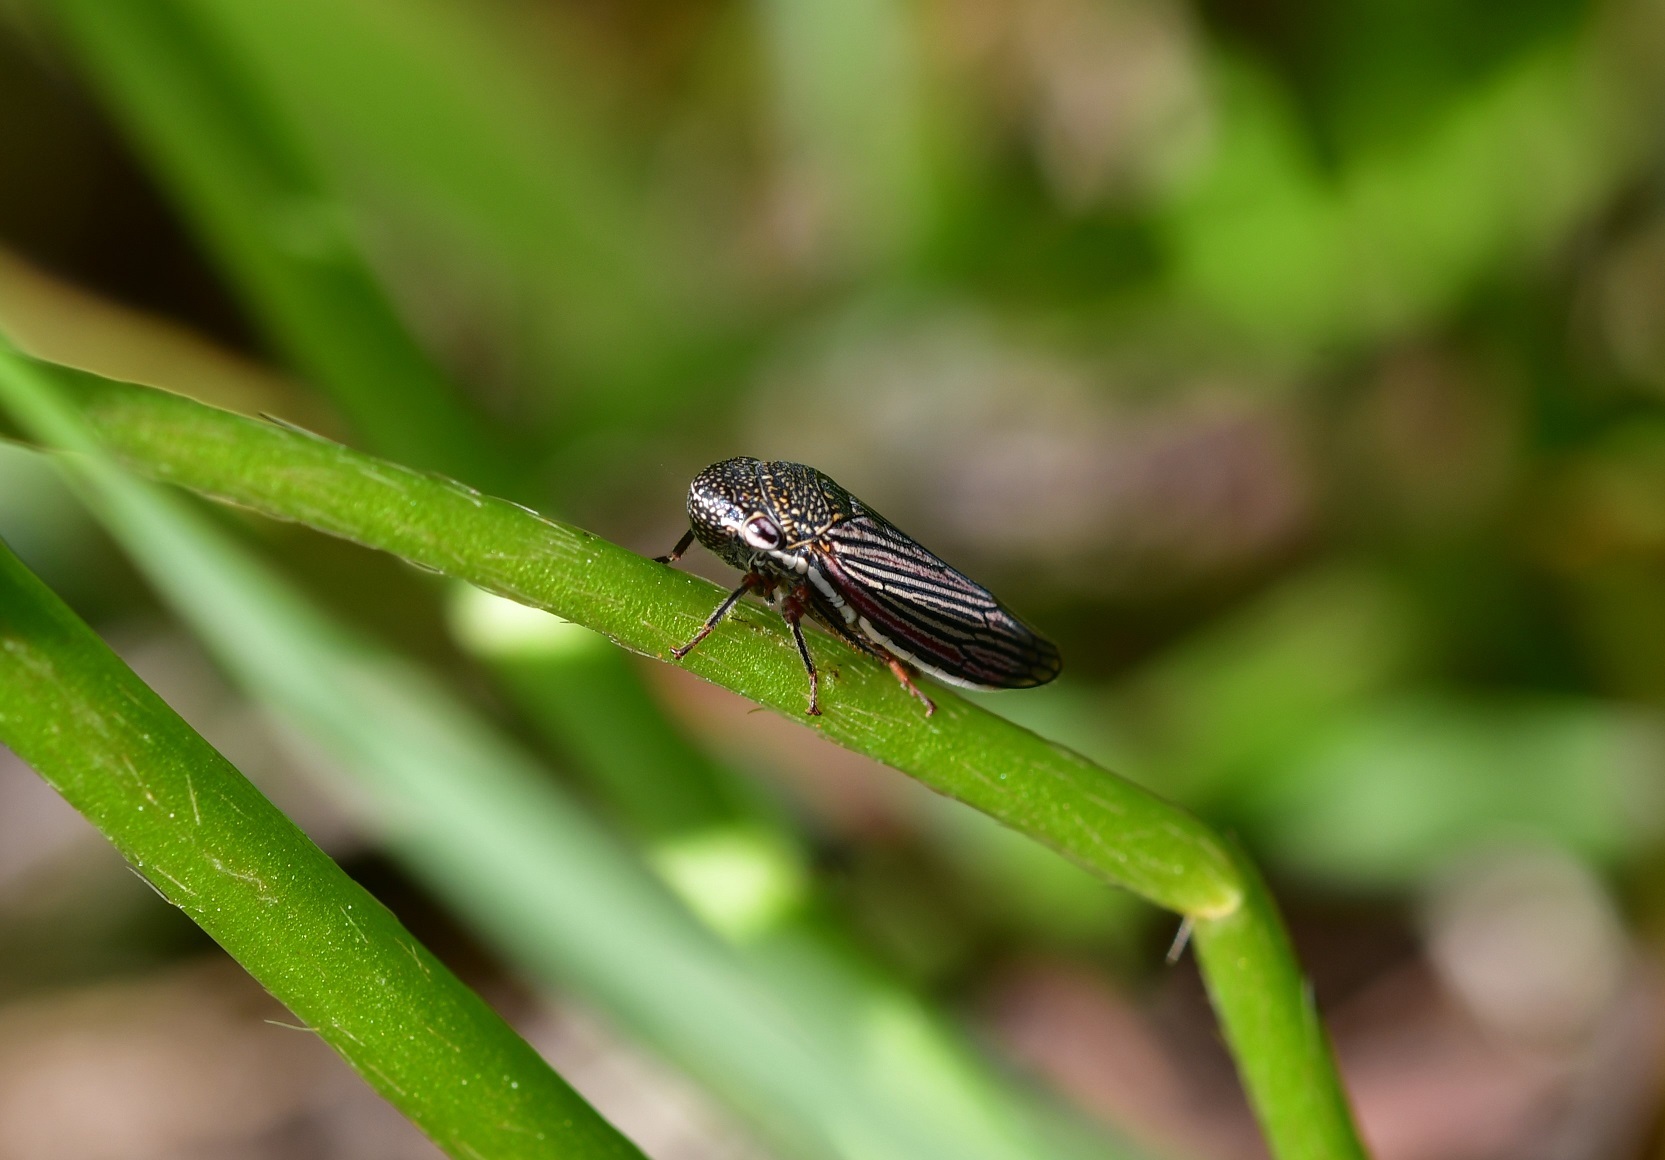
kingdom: Animalia
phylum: Arthropoda
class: Insecta
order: Hemiptera
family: Cicadellidae
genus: Cuerna
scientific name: Cuerna oaxacensis
